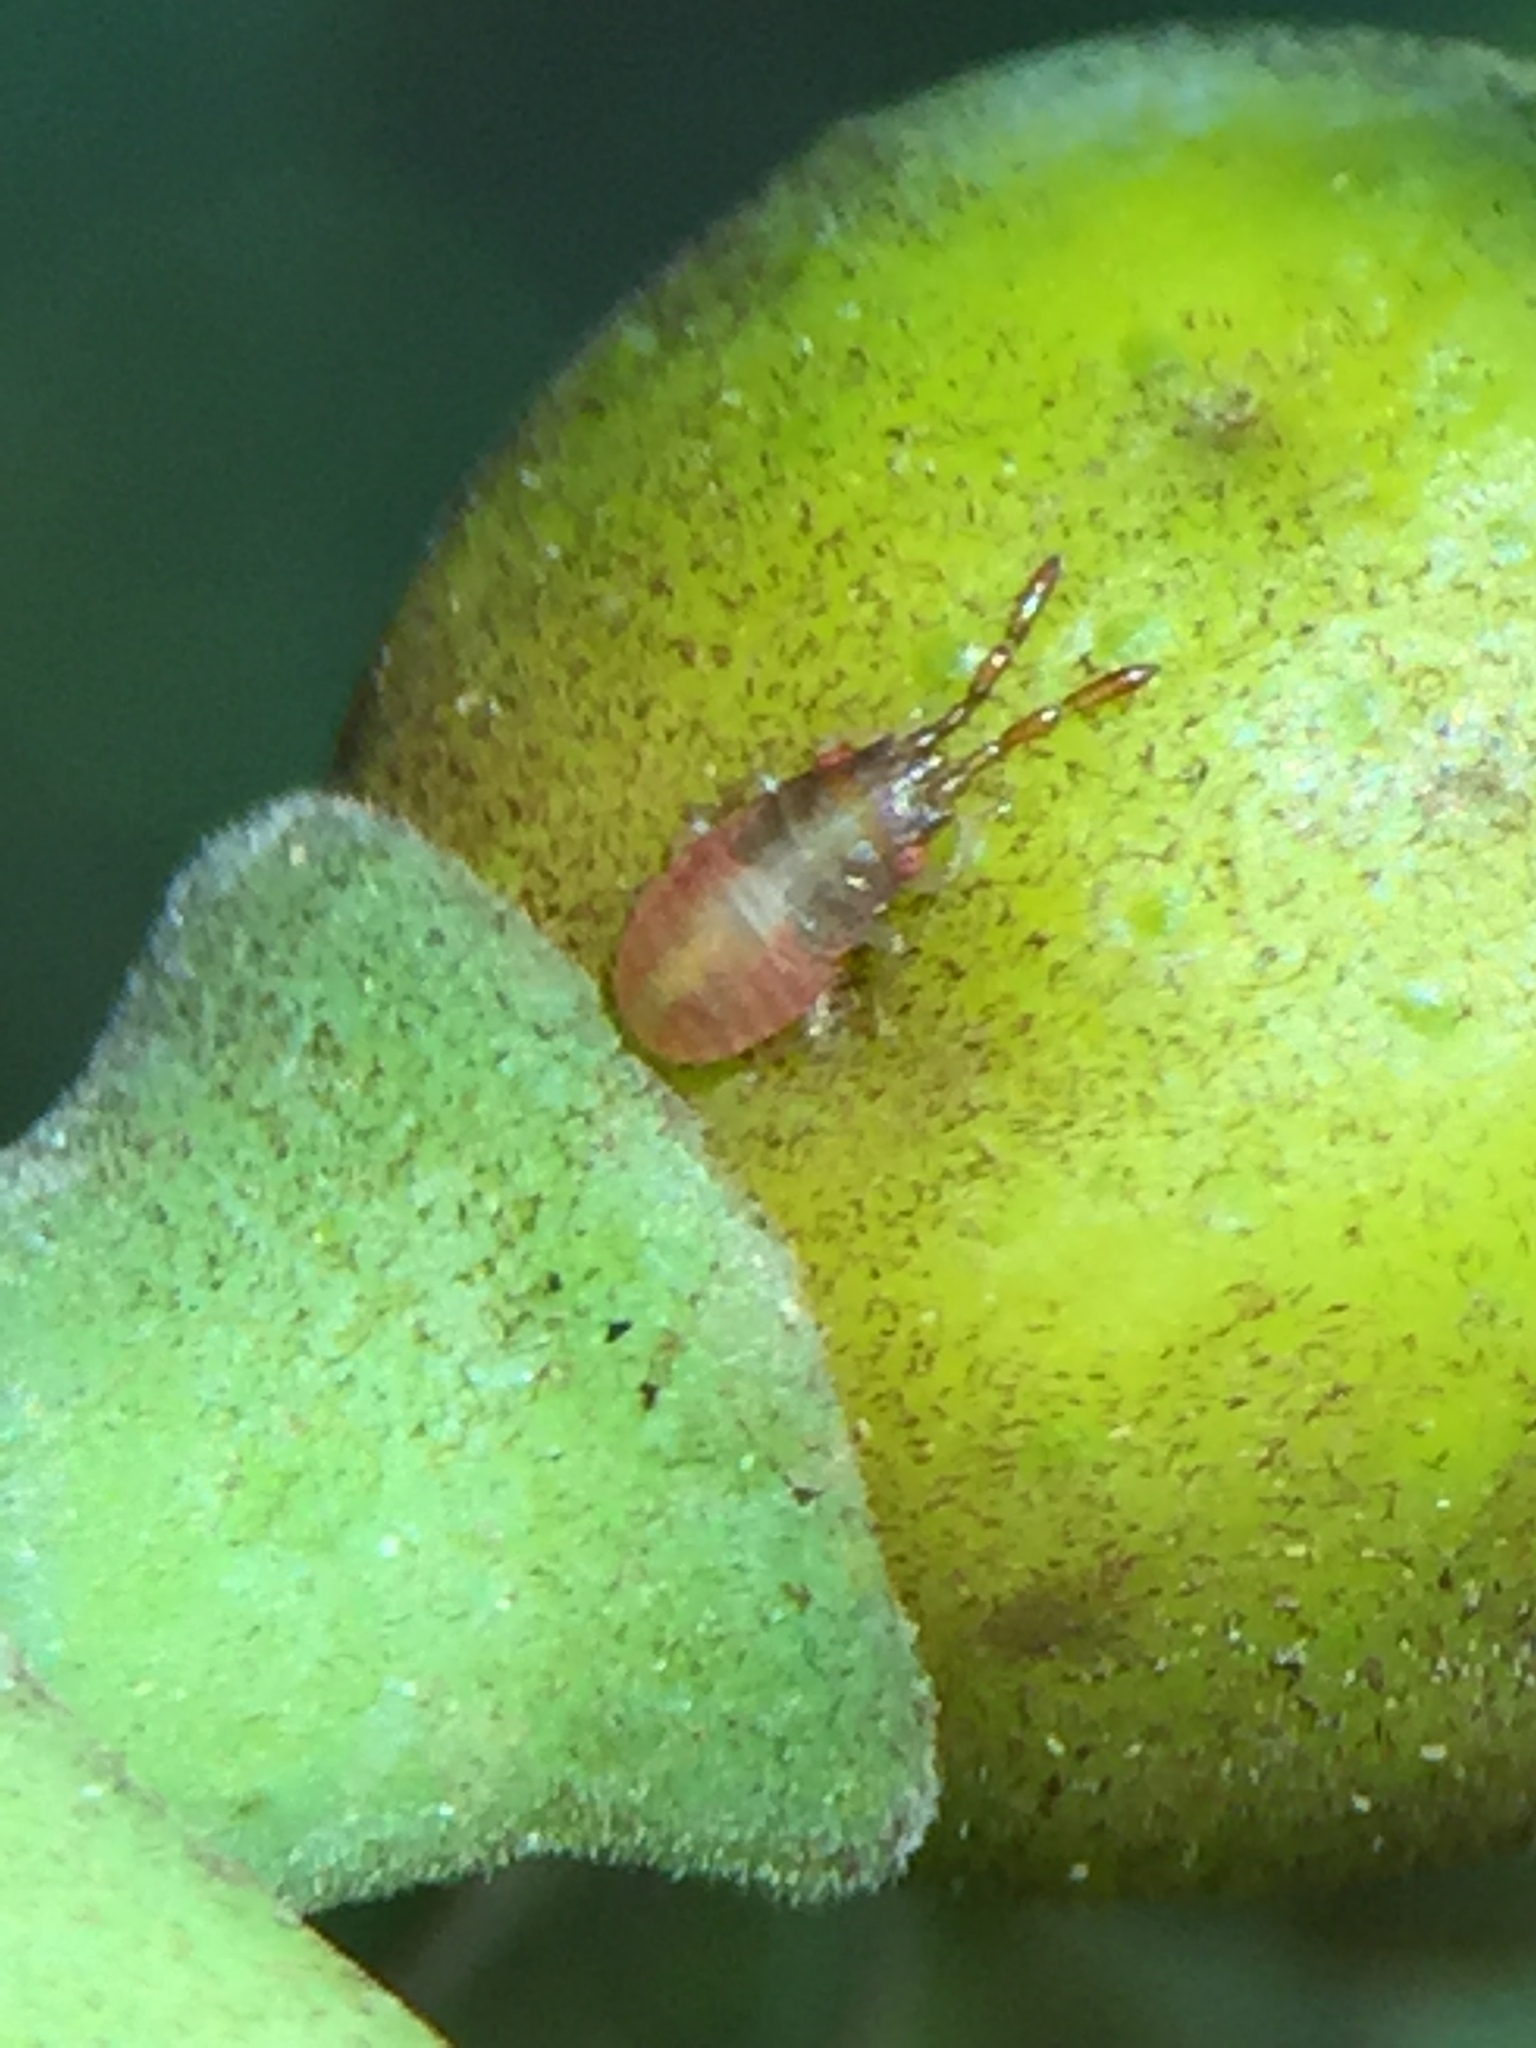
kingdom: Animalia
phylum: Arthropoda
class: Insecta
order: Hemiptera
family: Meschiidae
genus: Meschia
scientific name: Meschia barrowensis
